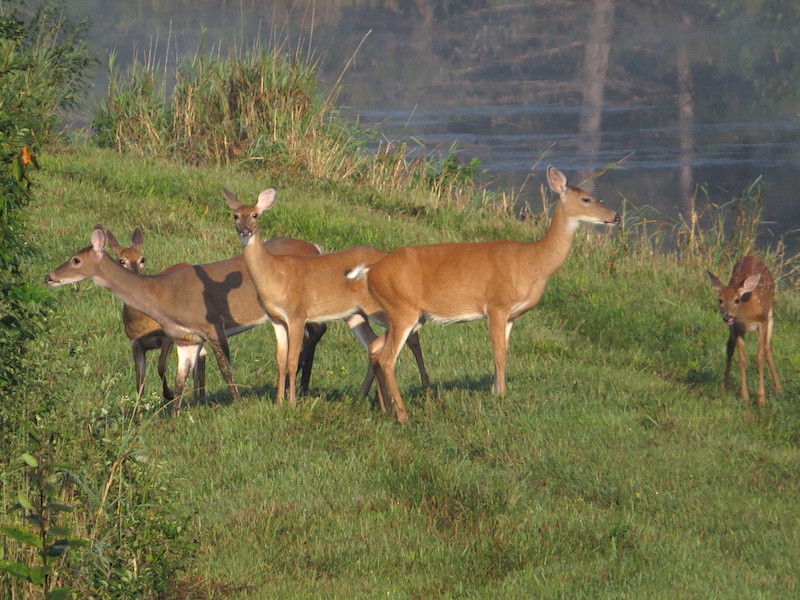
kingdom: Animalia
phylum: Chordata
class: Mammalia
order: Artiodactyla
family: Cervidae
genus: Odocoileus
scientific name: Odocoileus virginianus
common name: White-tailed deer
